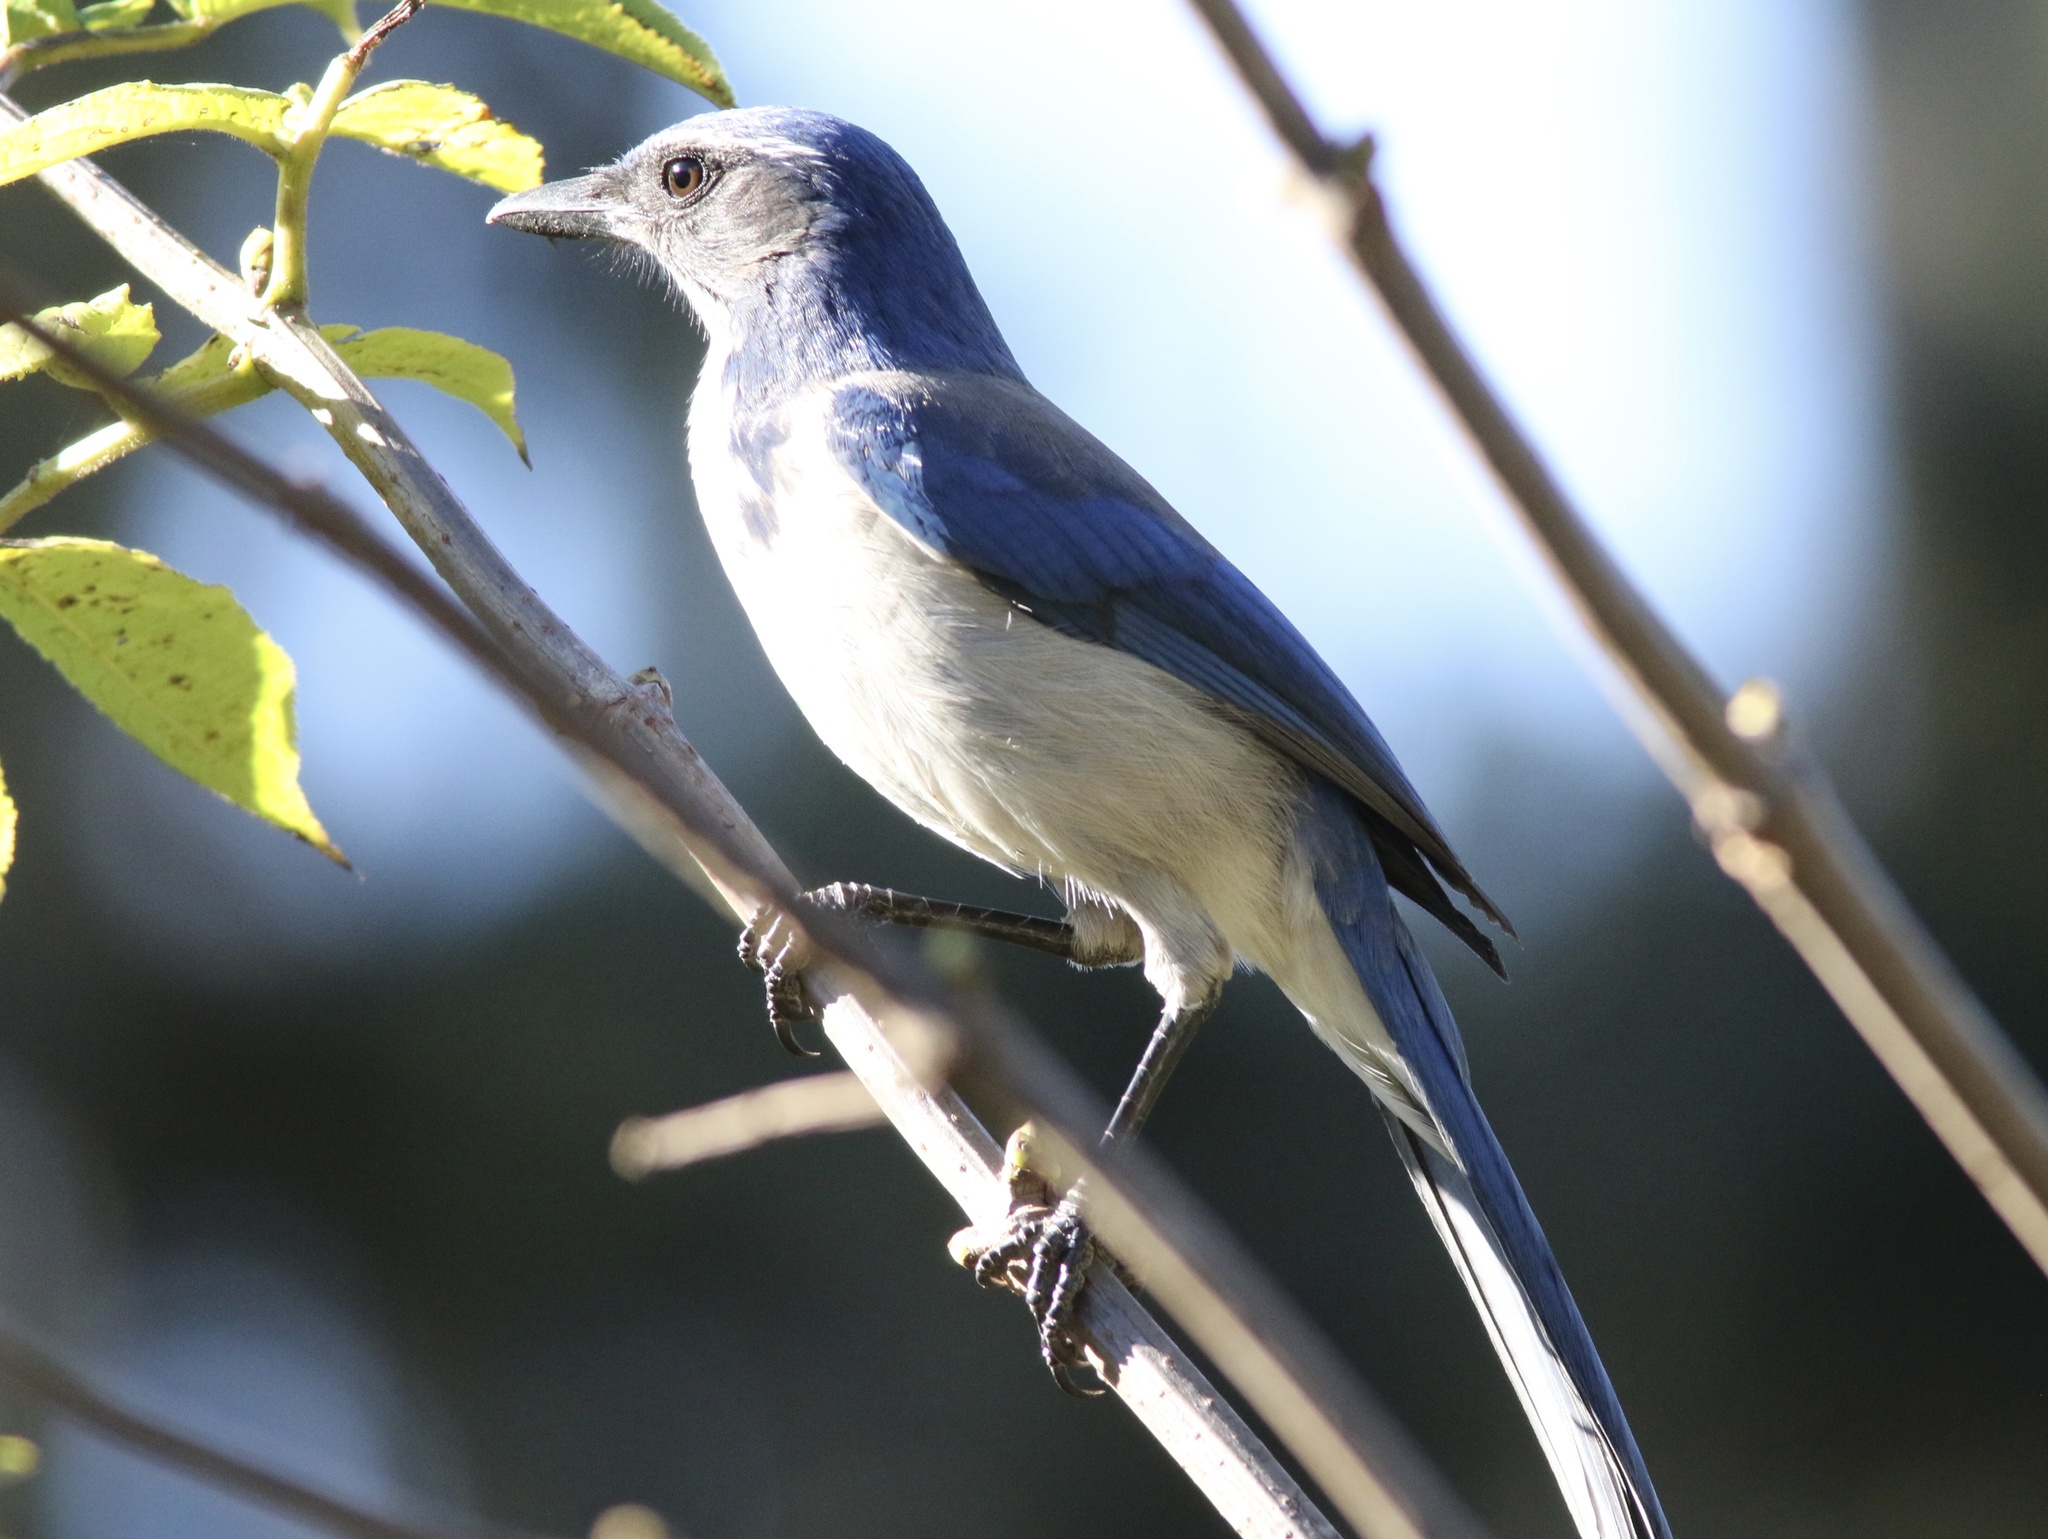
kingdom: Animalia
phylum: Chordata
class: Aves
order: Passeriformes
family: Corvidae
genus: Aphelocoma
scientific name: Aphelocoma californica
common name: California scrub-jay
